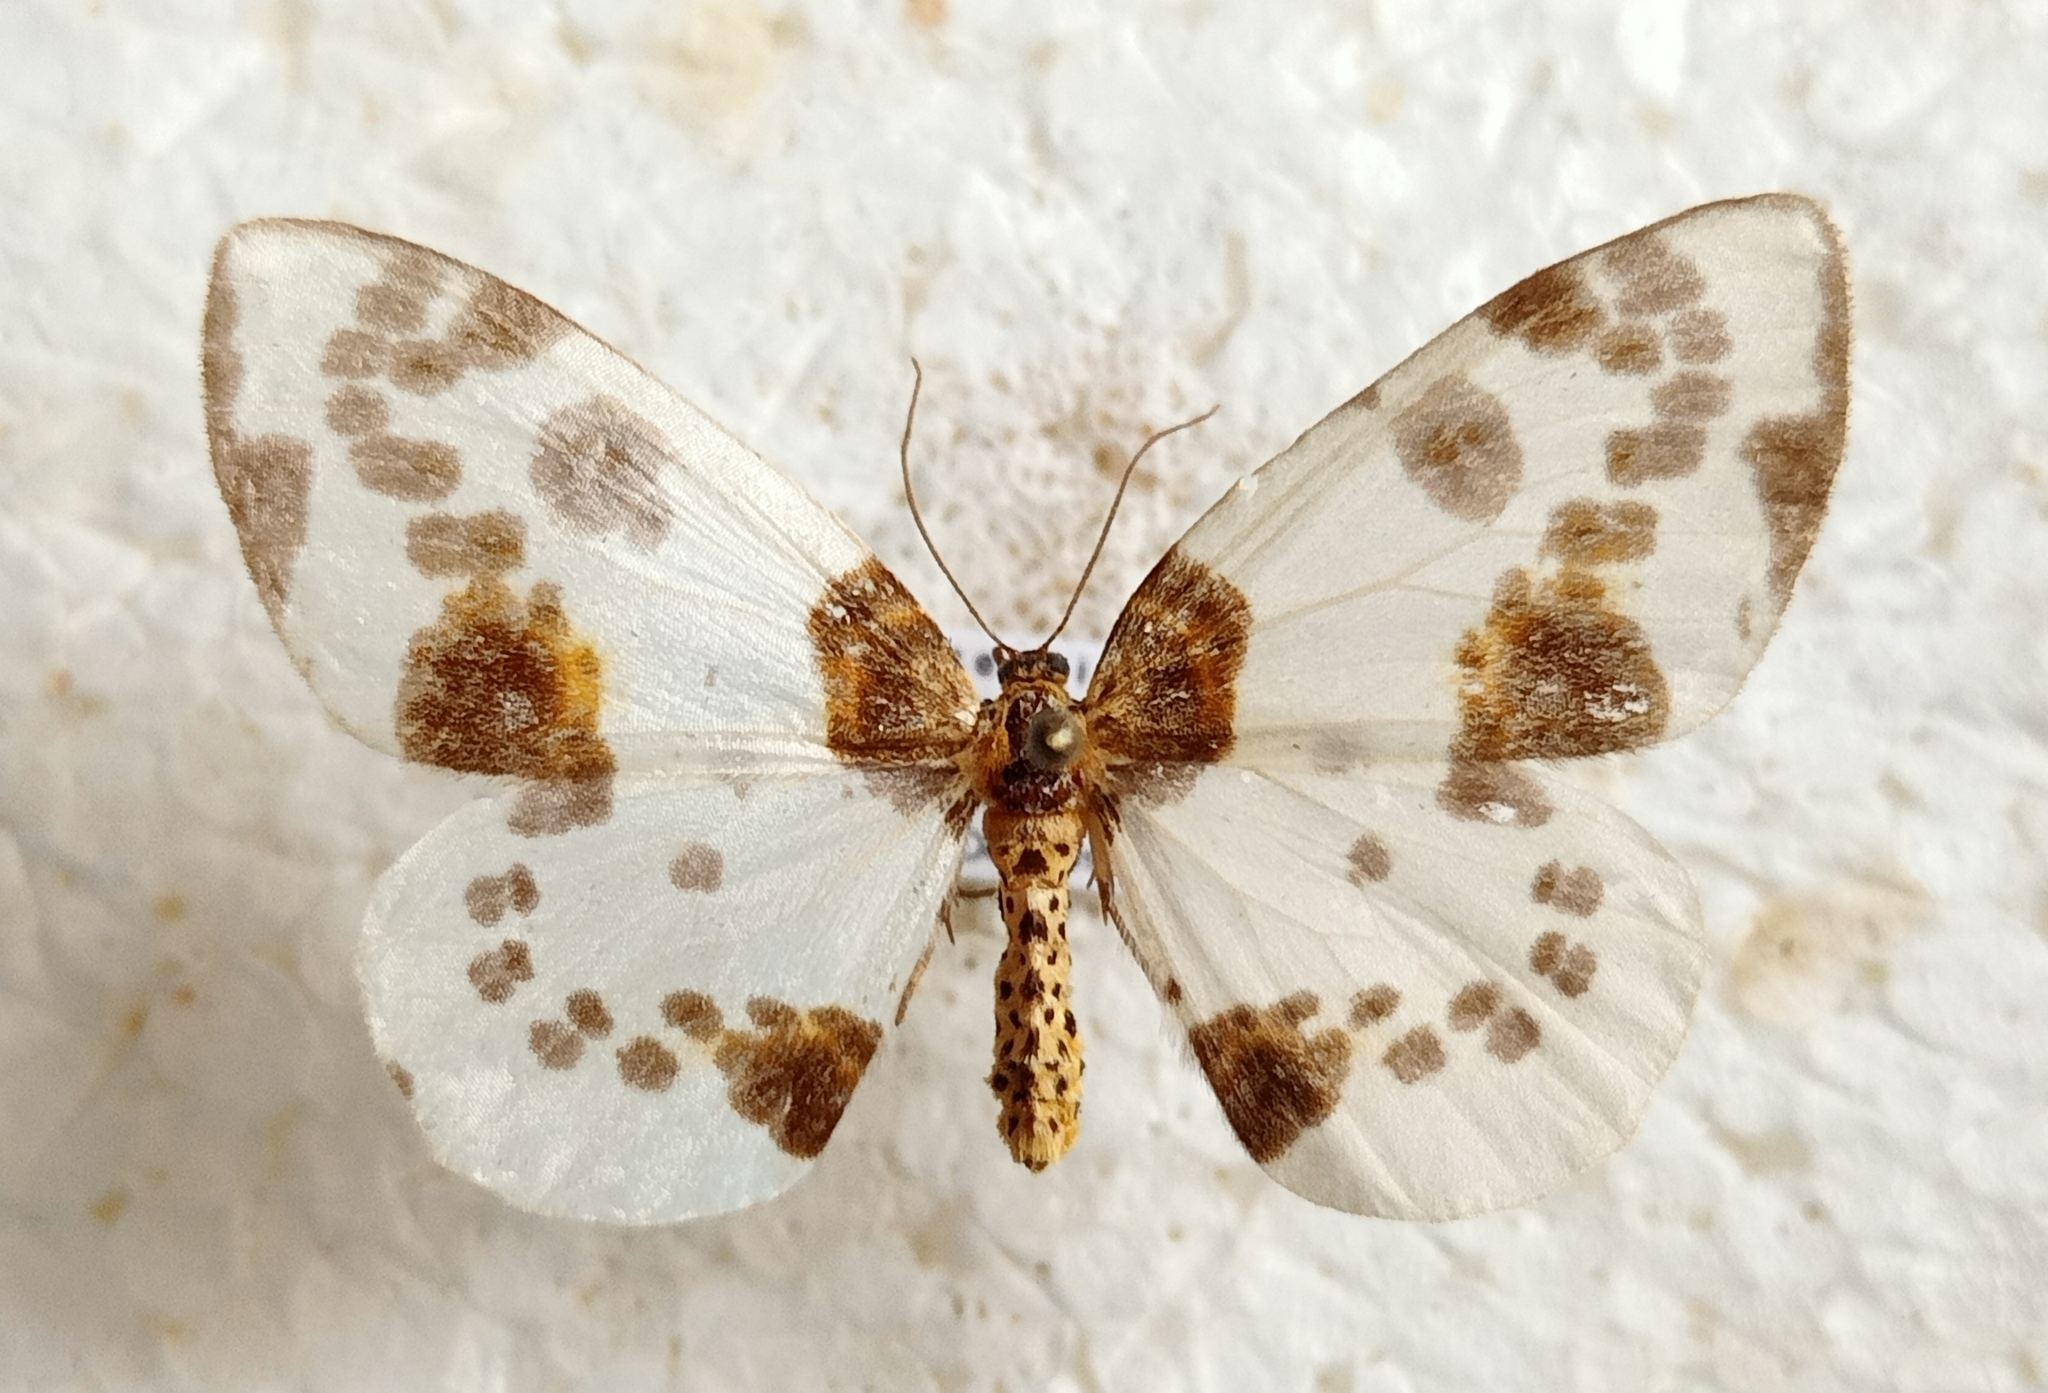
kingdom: Animalia
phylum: Arthropoda
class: Insecta
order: Lepidoptera
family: Geometridae
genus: Abraxas
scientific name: Abraxas sylvata
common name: Clouded magpie
